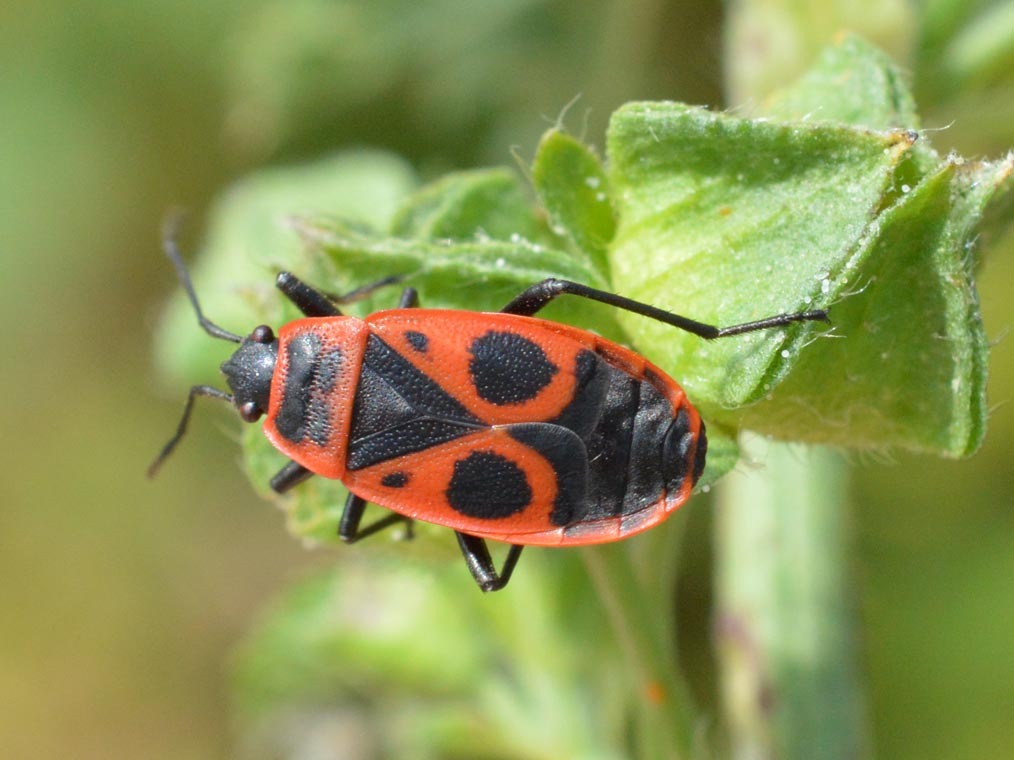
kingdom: Animalia
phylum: Arthropoda
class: Insecta
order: Hemiptera
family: Pyrrhocoridae
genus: Pyrrhocoris
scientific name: Pyrrhocoris apterus
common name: Firebug
